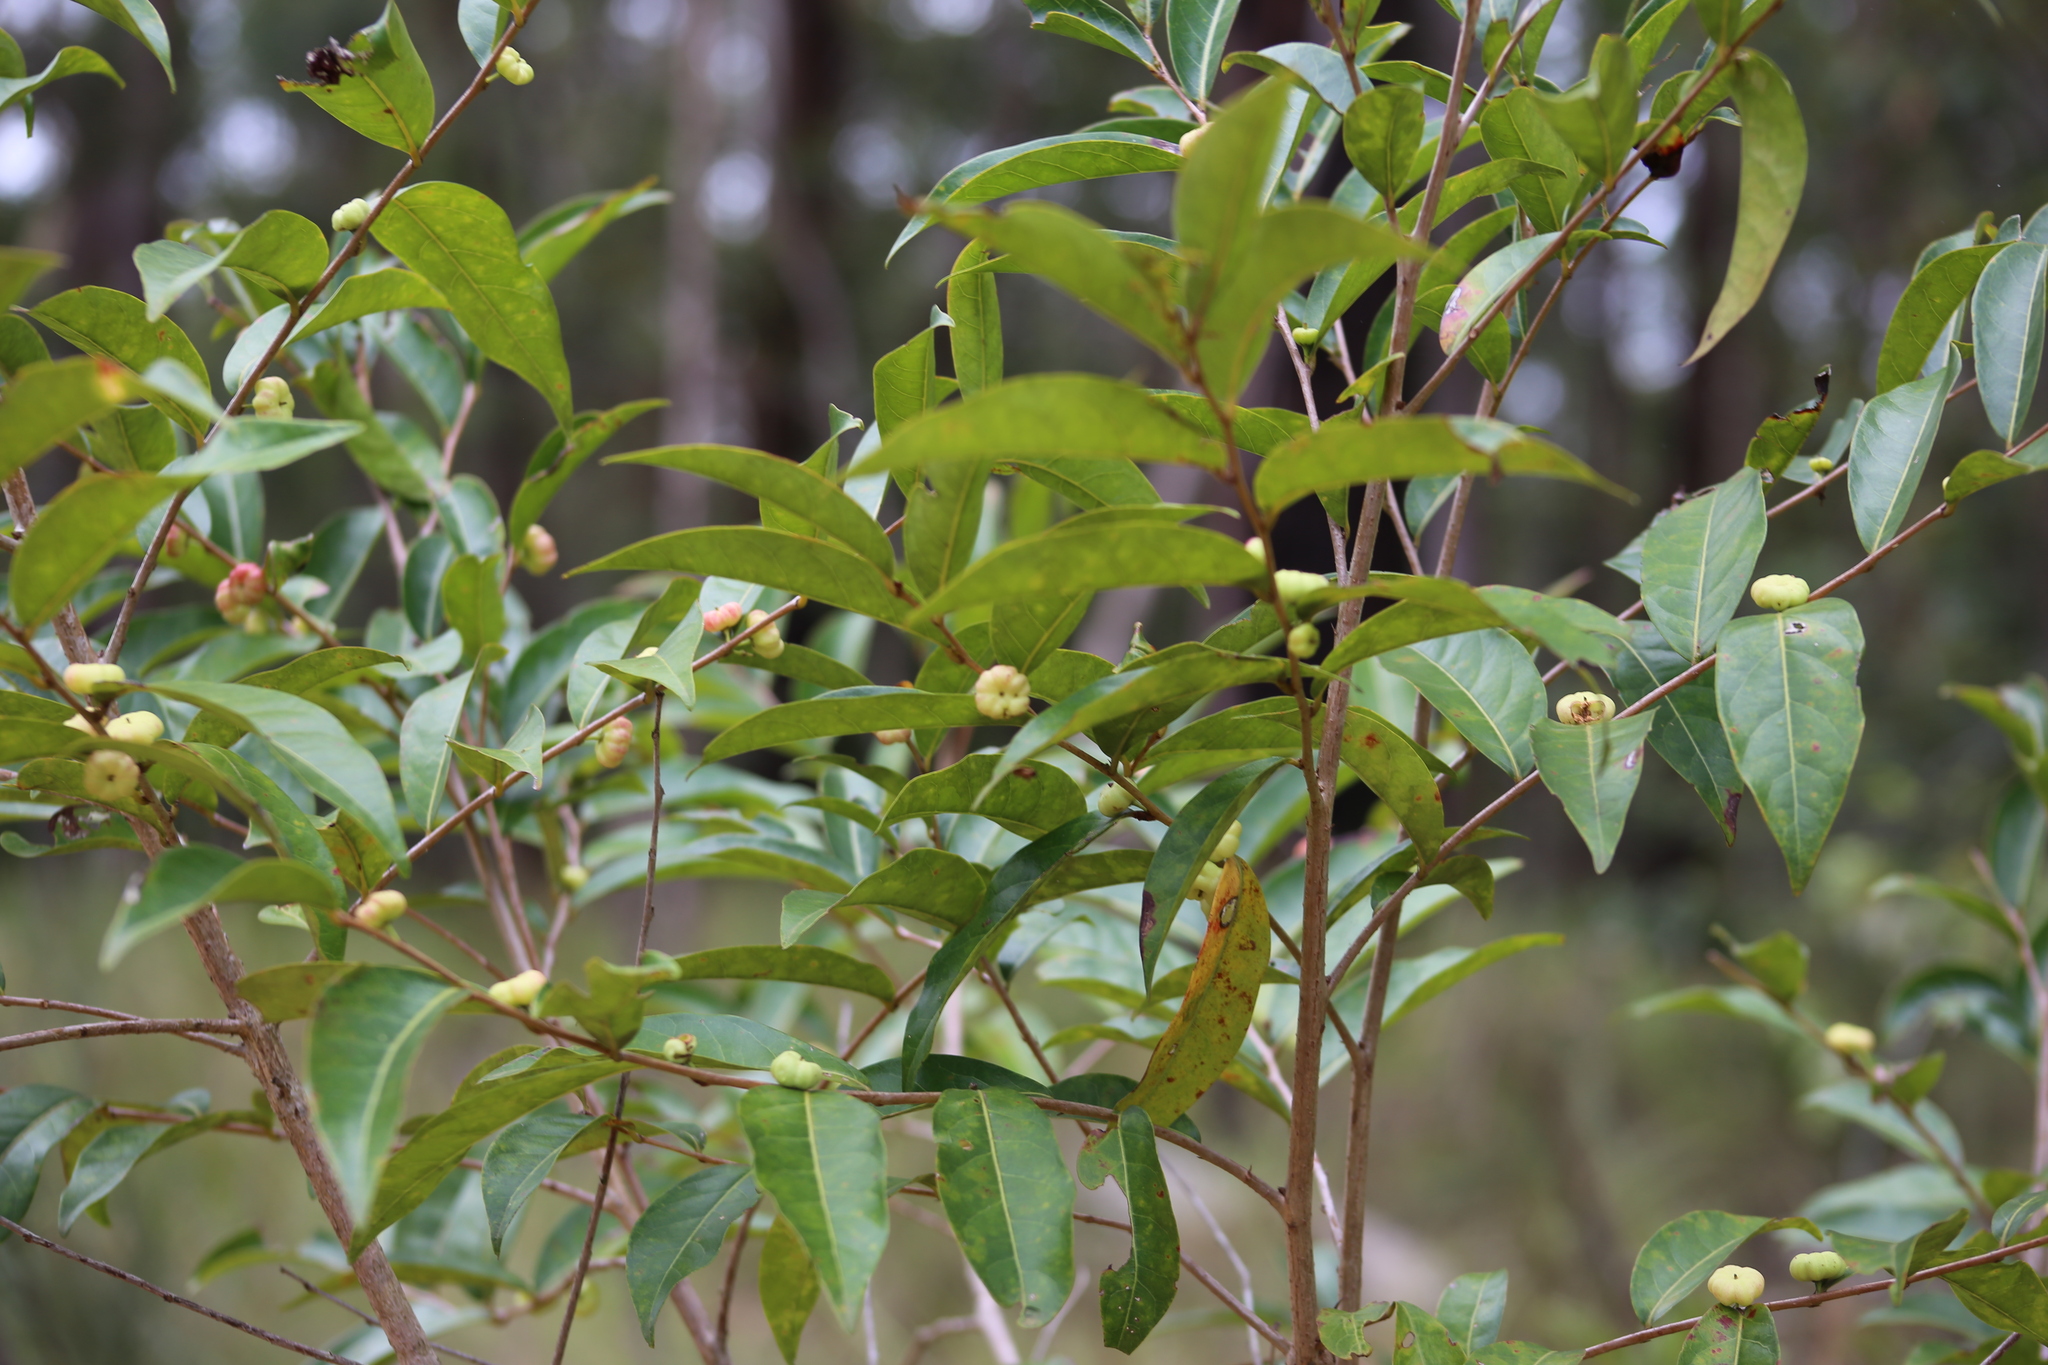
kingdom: Plantae
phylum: Tracheophyta
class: Magnoliopsida
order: Malpighiales
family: Phyllanthaceae
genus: Glochidion
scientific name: Glochidion ferdinandi
